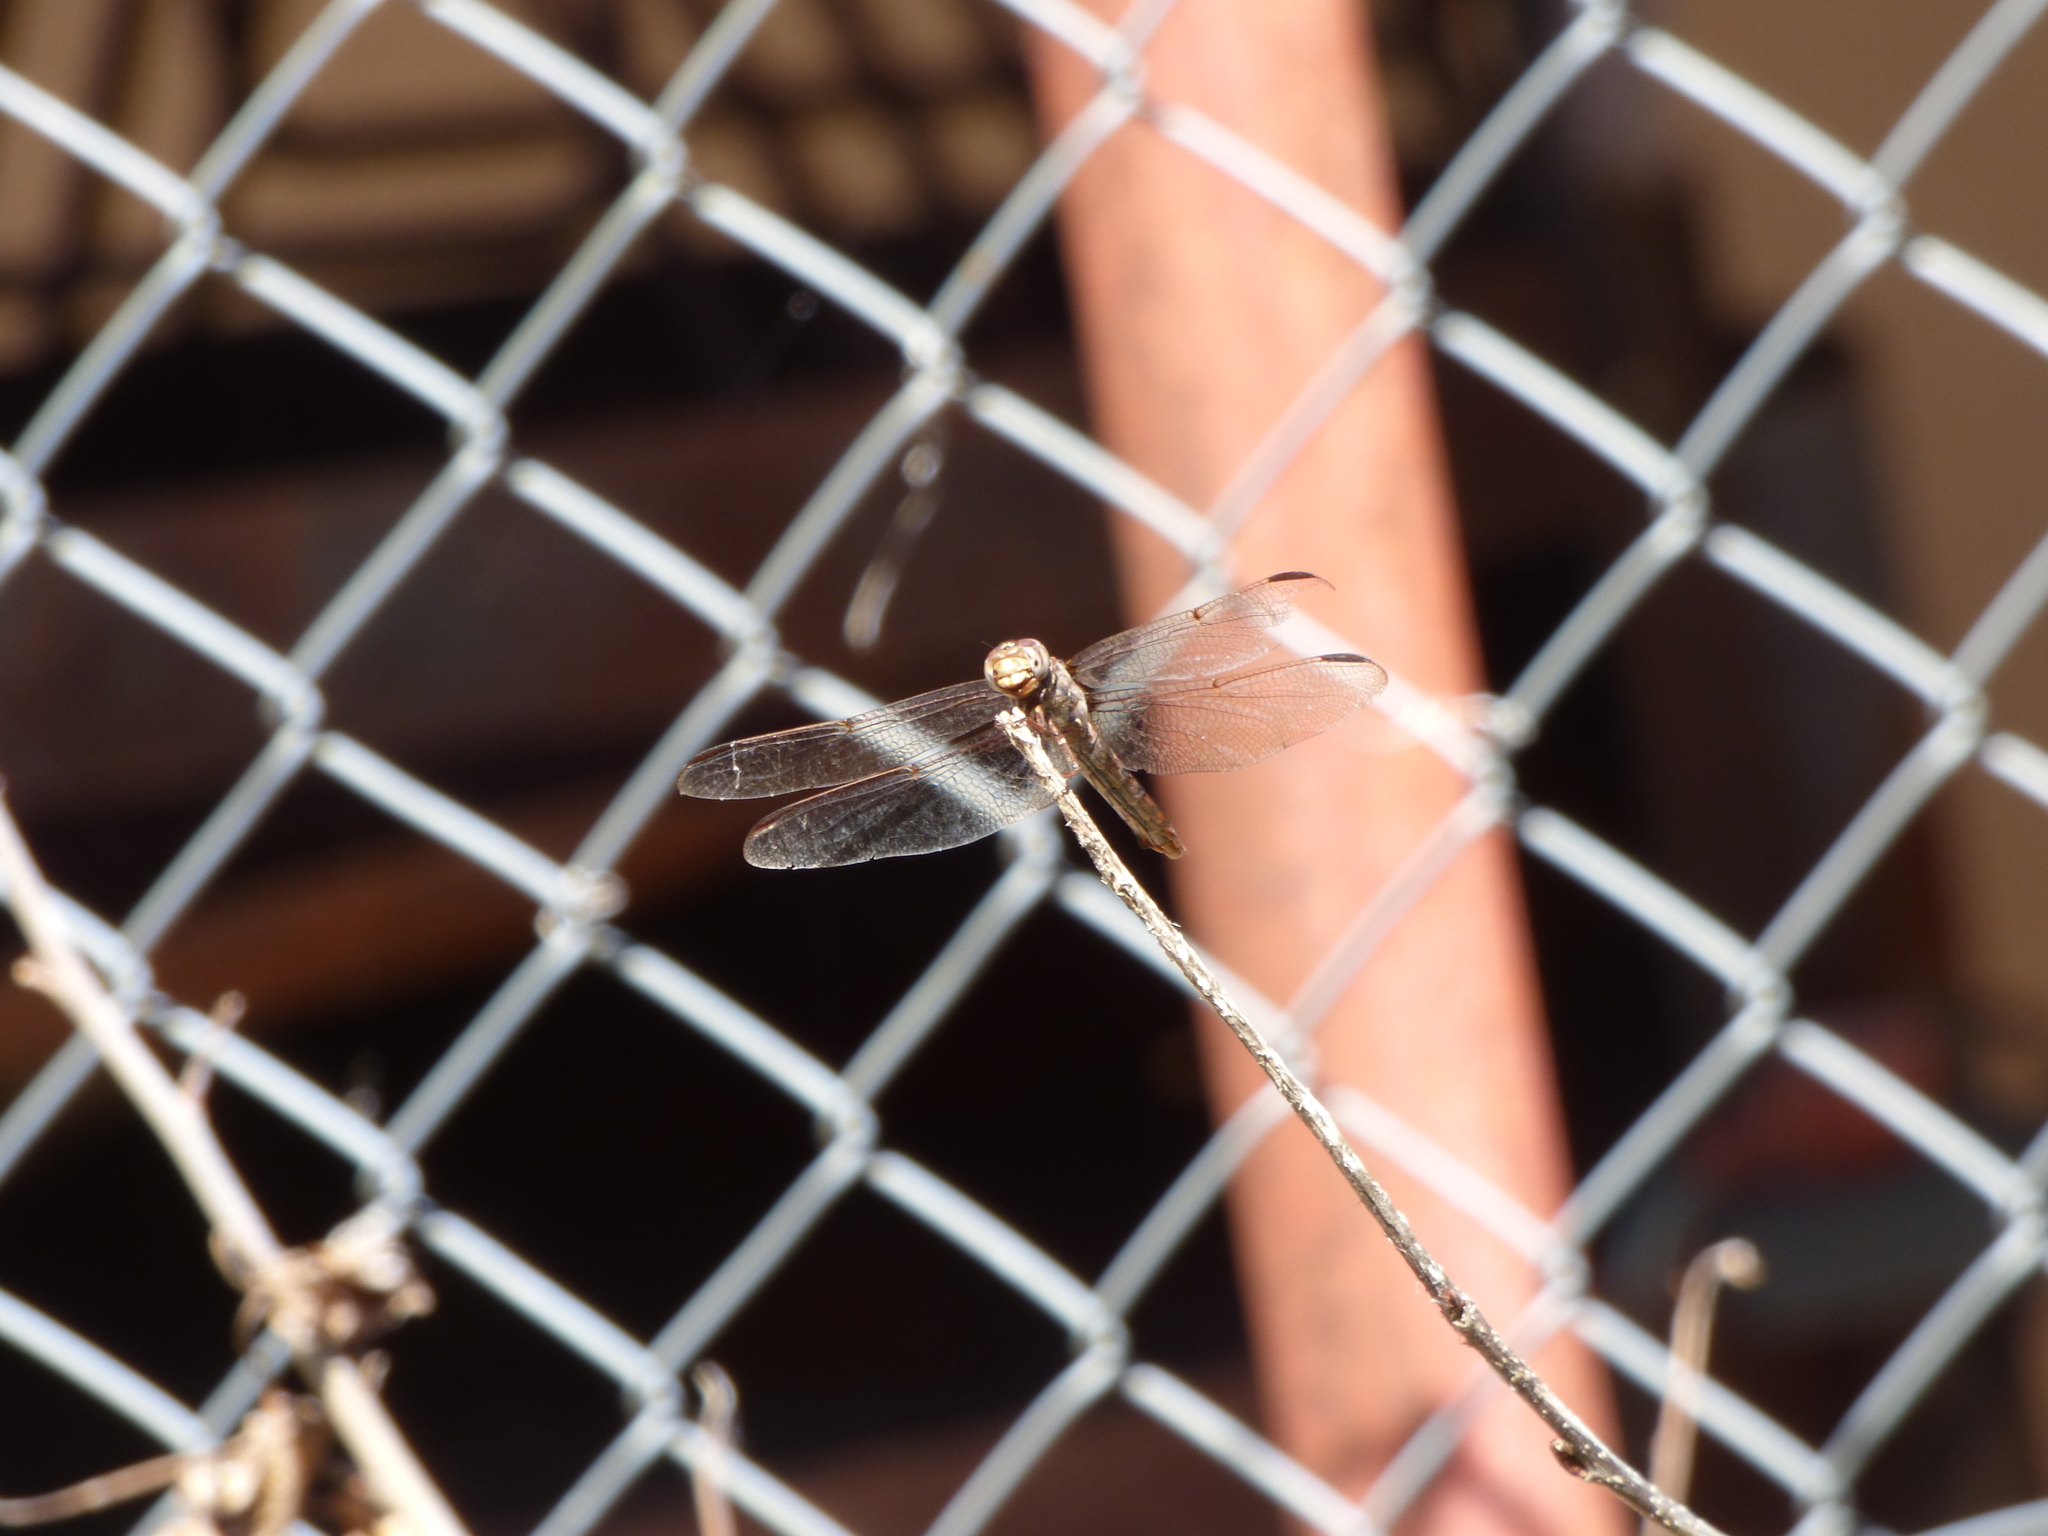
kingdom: Animalia
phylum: Arthropoda
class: Insecta
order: Odonata
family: Libellulidae
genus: Orthemis
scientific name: Orthemis nodiplaga
